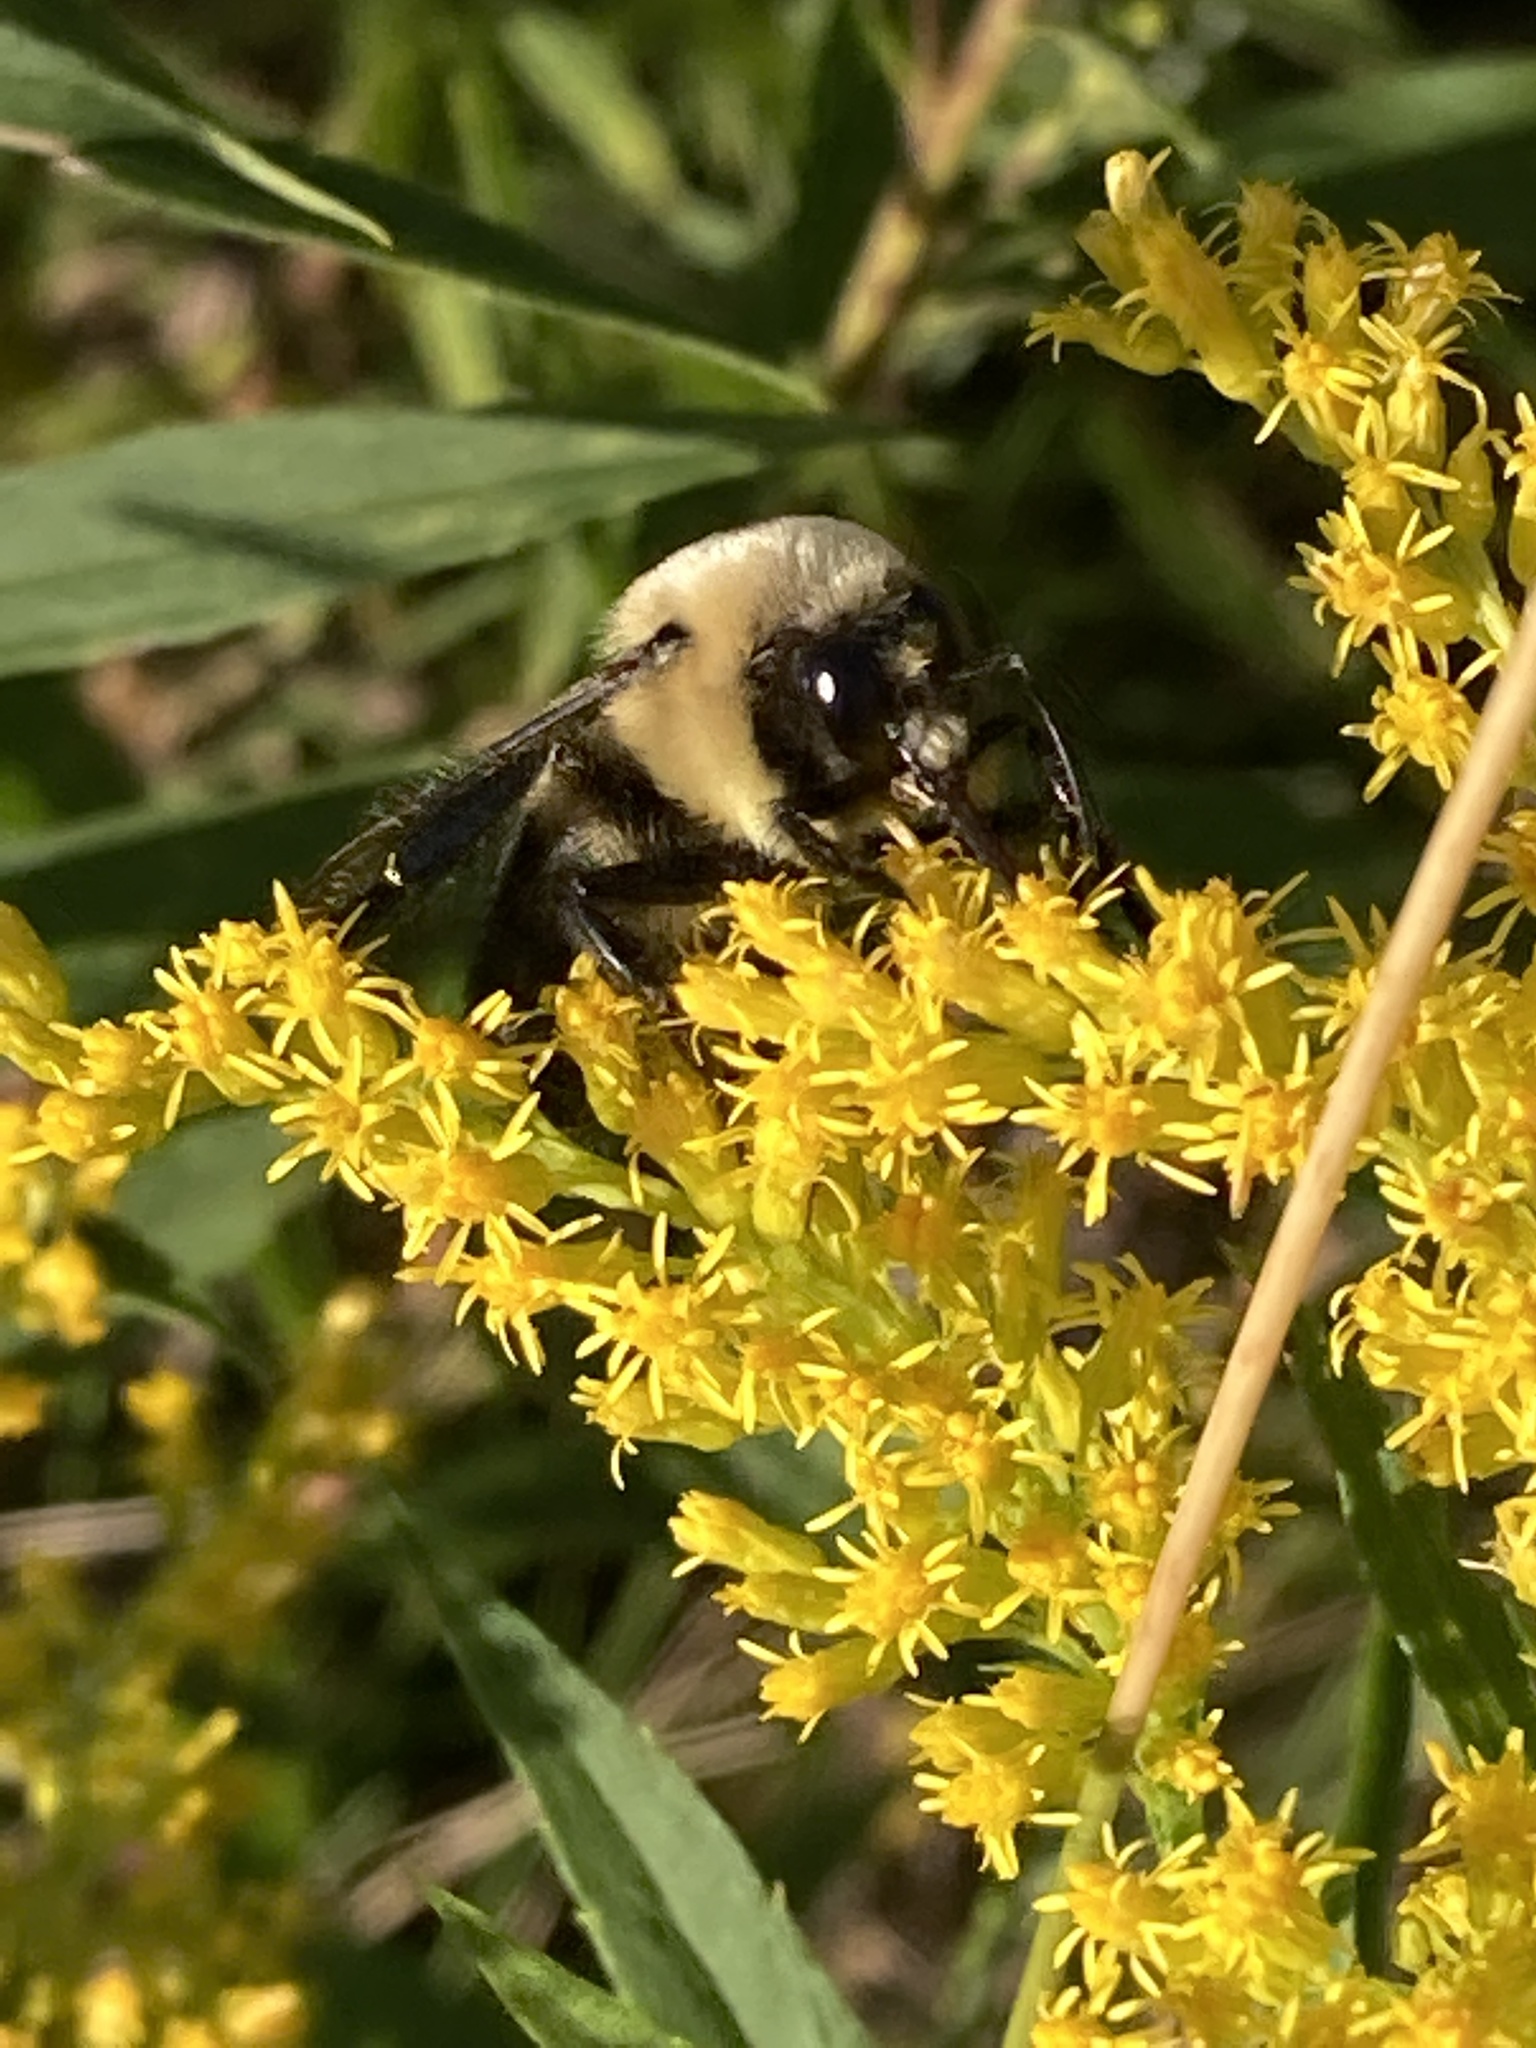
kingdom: Animalia
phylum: Arthropoda
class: Insecta
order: Hymenoptera
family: Apidae
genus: Bombus
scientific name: Bombus griseocollis
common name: Brown-belted bumble bee
